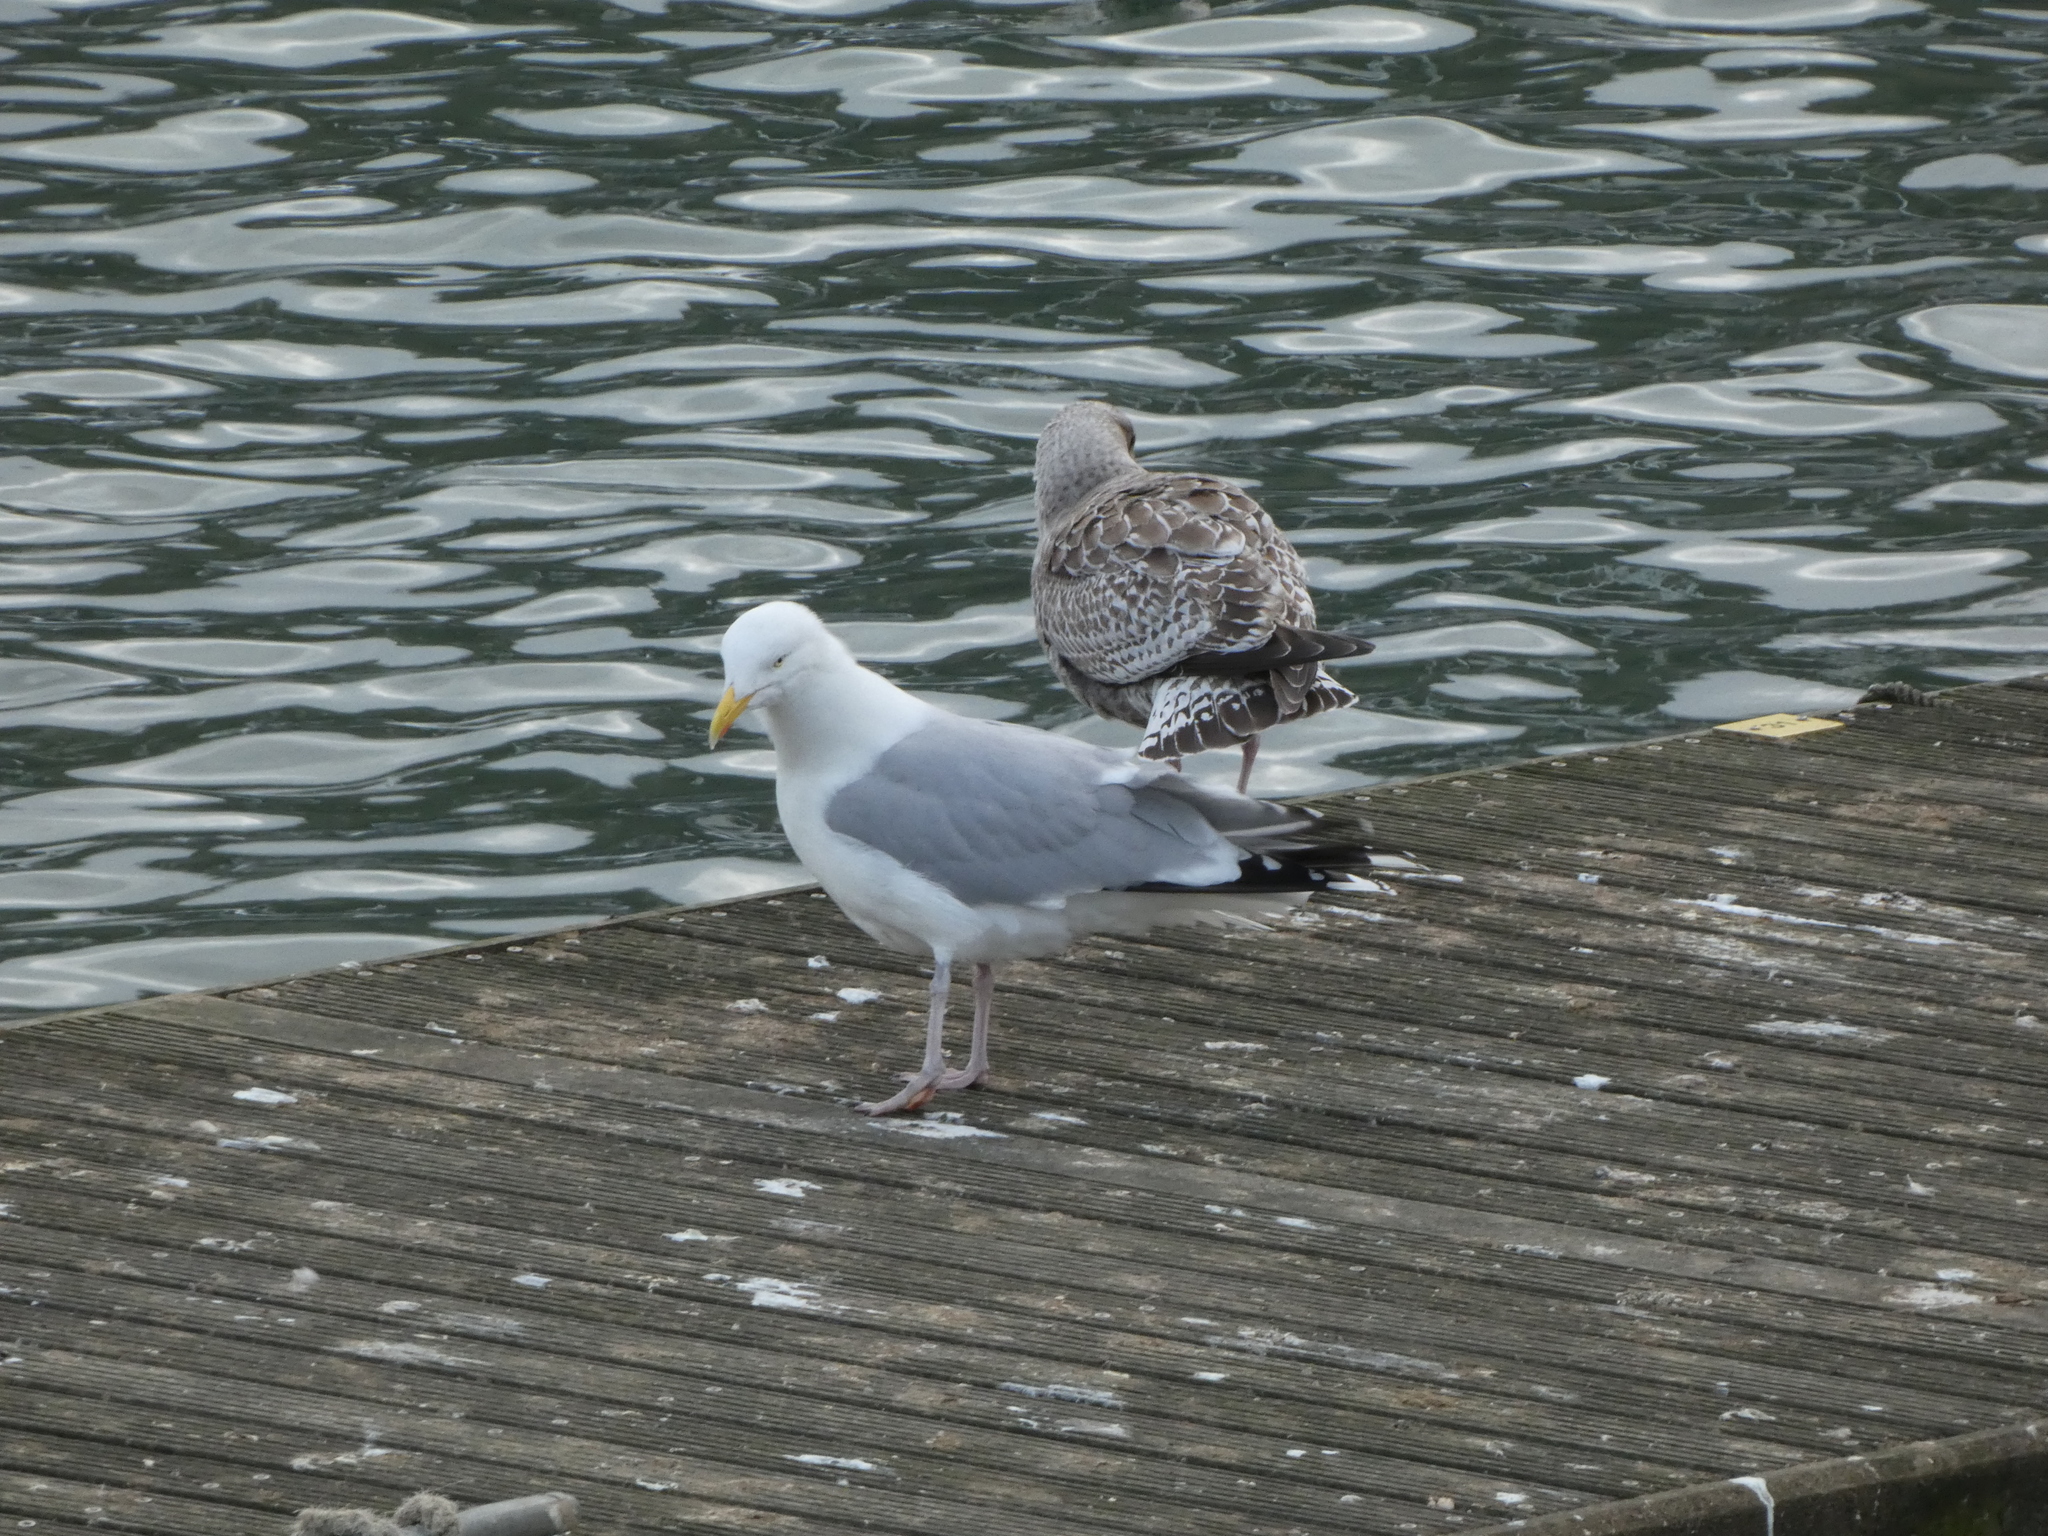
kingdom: Animalia
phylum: Chordata
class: Aves
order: Charadriiformes
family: Laridae
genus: Larus
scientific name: Larus argentatus
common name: Herring gull
